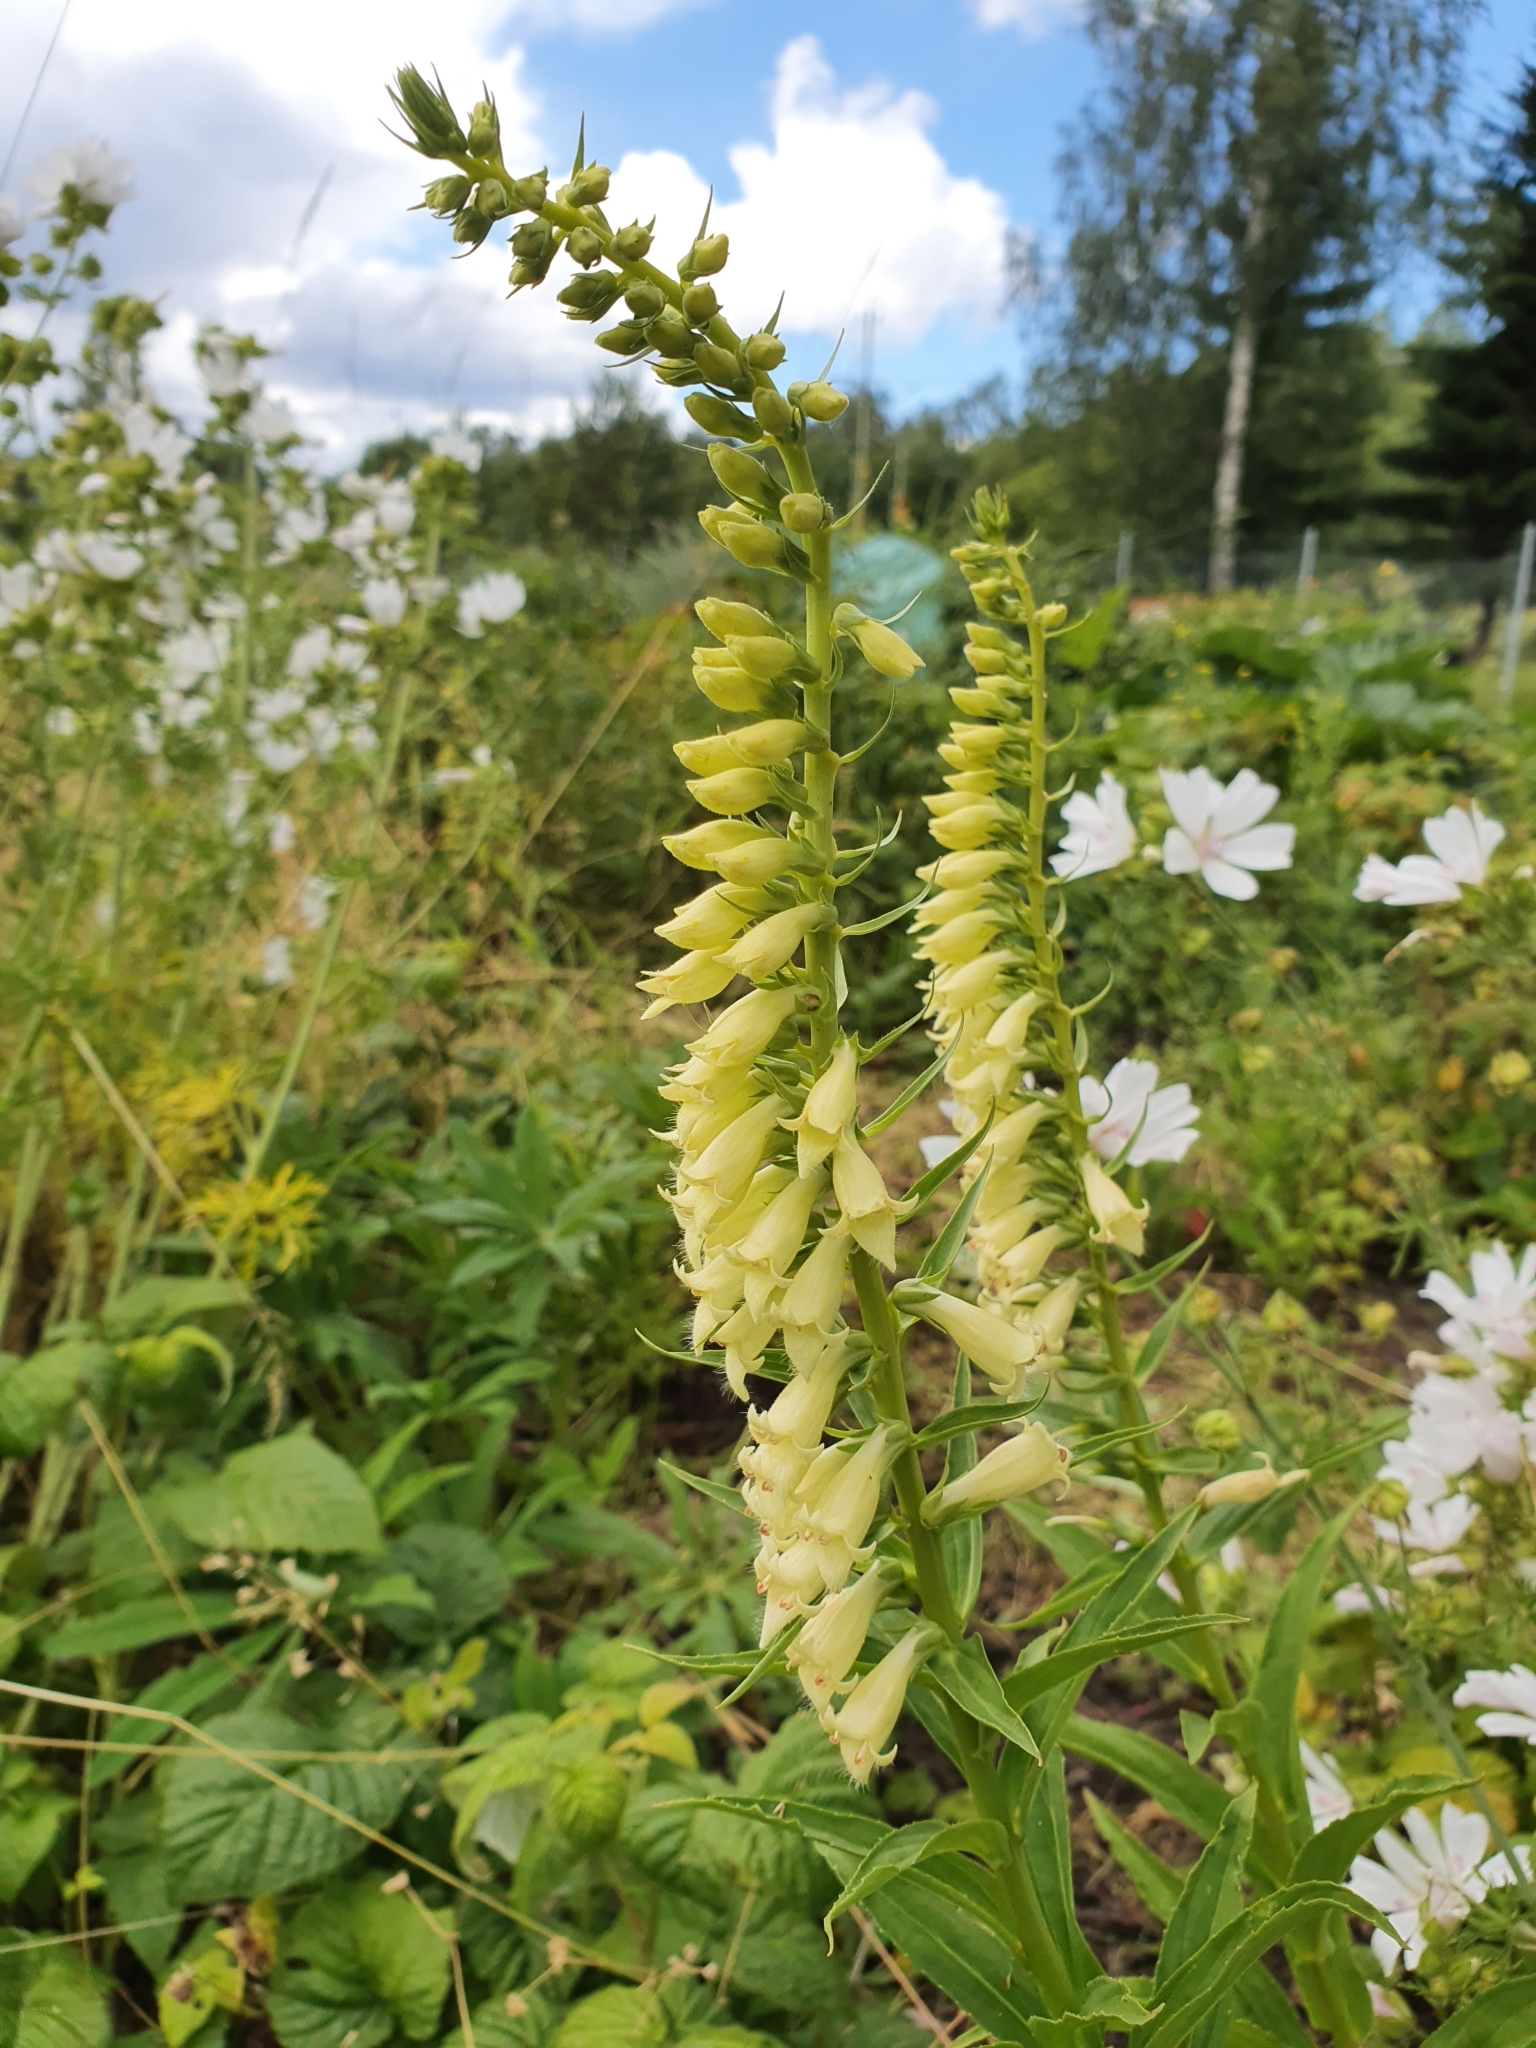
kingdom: Plantae
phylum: Tracheophyta
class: Magnoliopsida
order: Lamiales
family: Plantaginaceae
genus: Digitalis
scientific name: Digitalis lutea
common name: Straw foxglove
